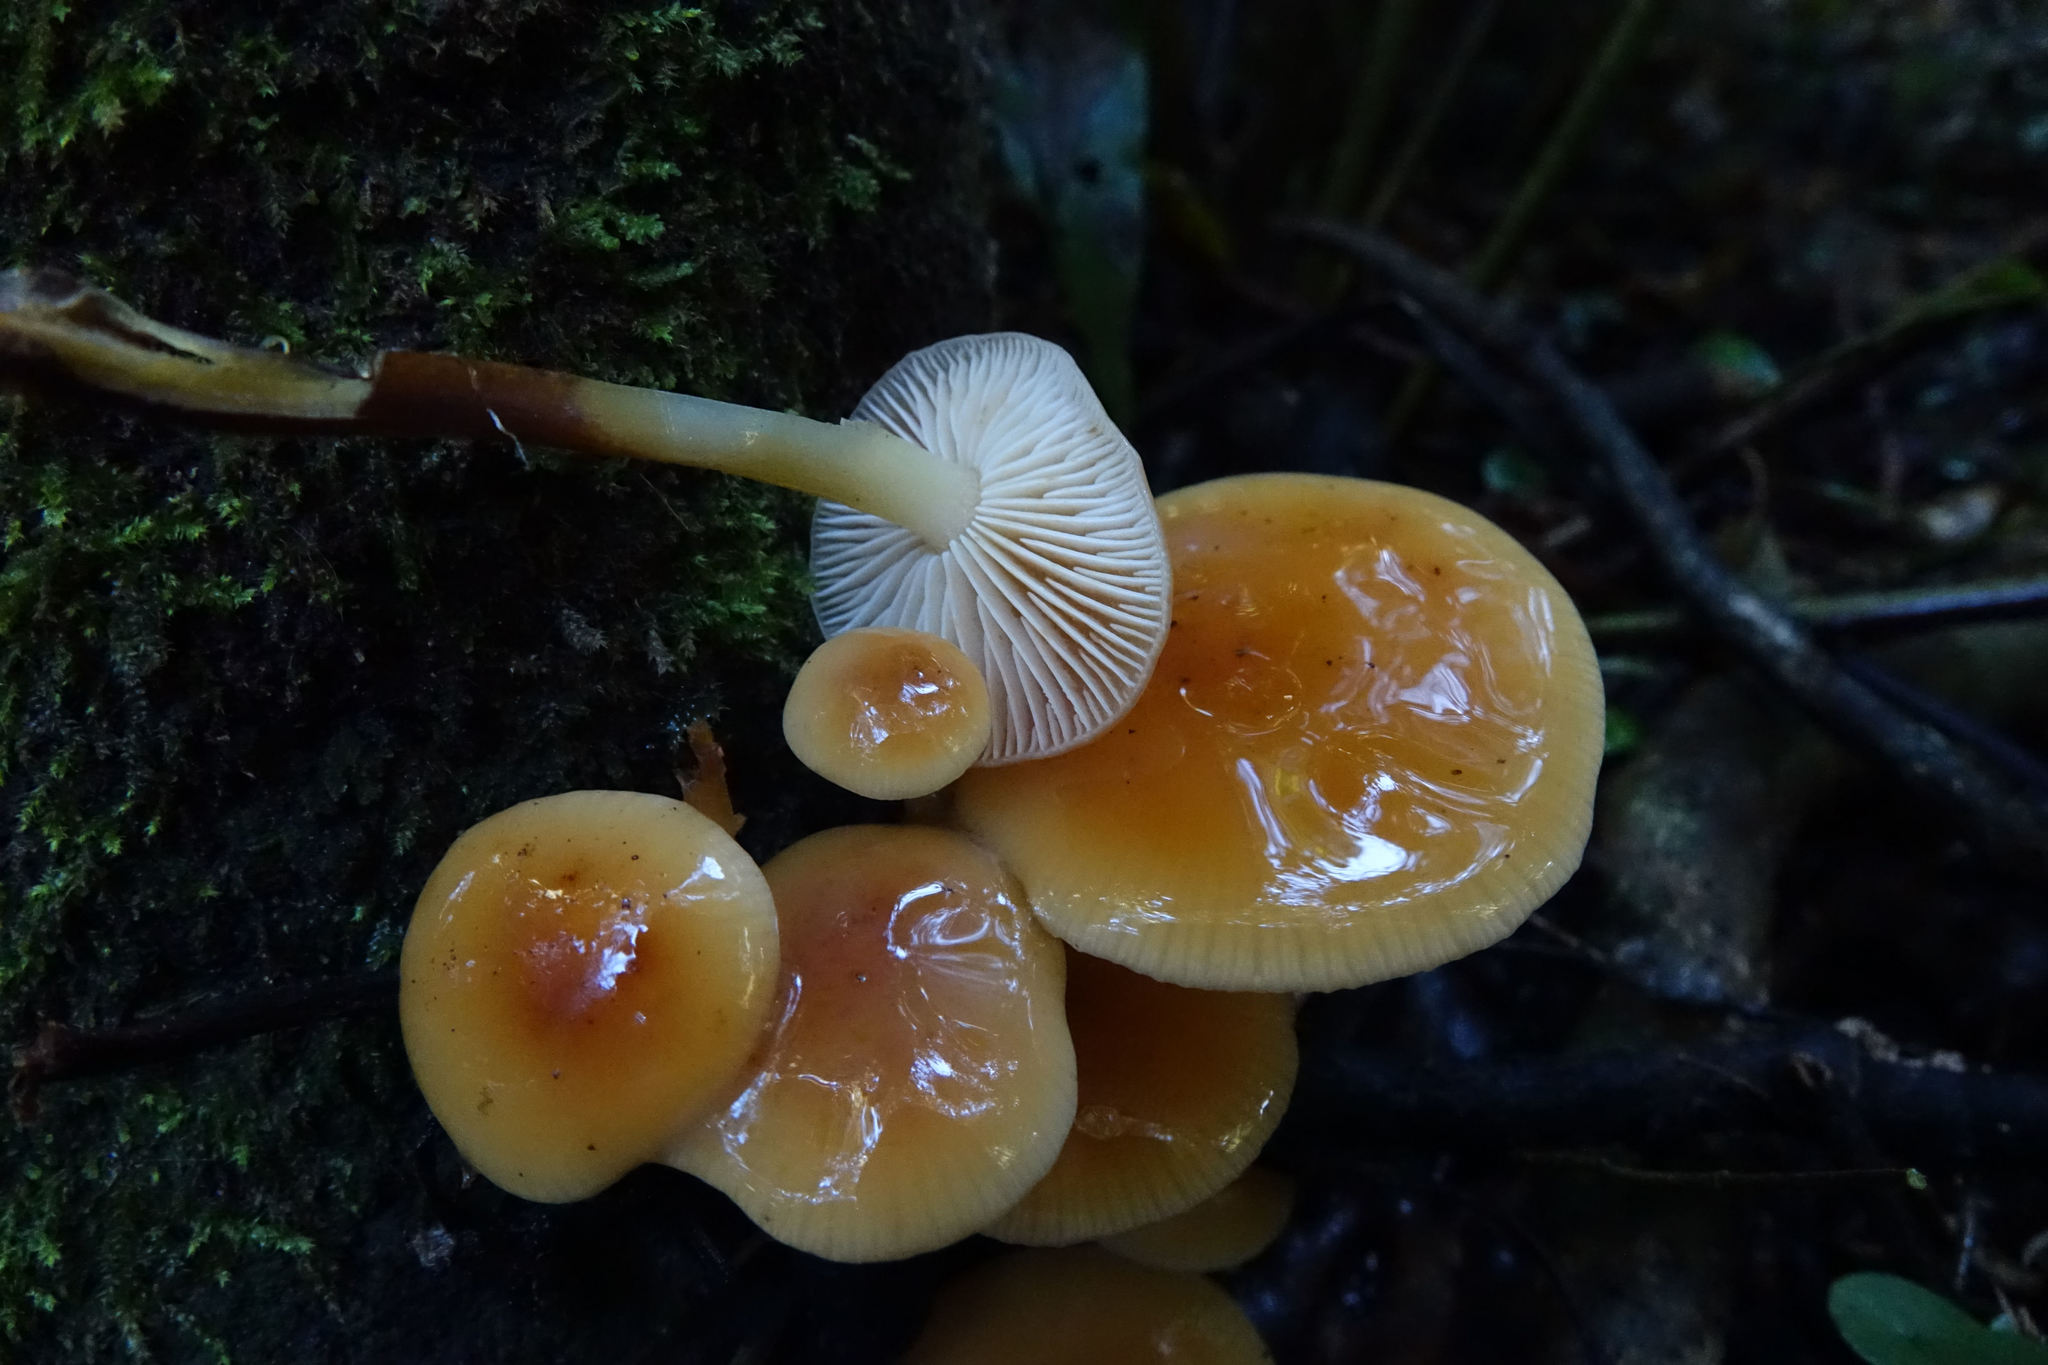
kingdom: Fungi
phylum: Basidiomycota
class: Agaricomycetes
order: Agaricales
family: Physalacriaceae
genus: Flammulina
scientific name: Flammulina velutipes
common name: Velvet shank
